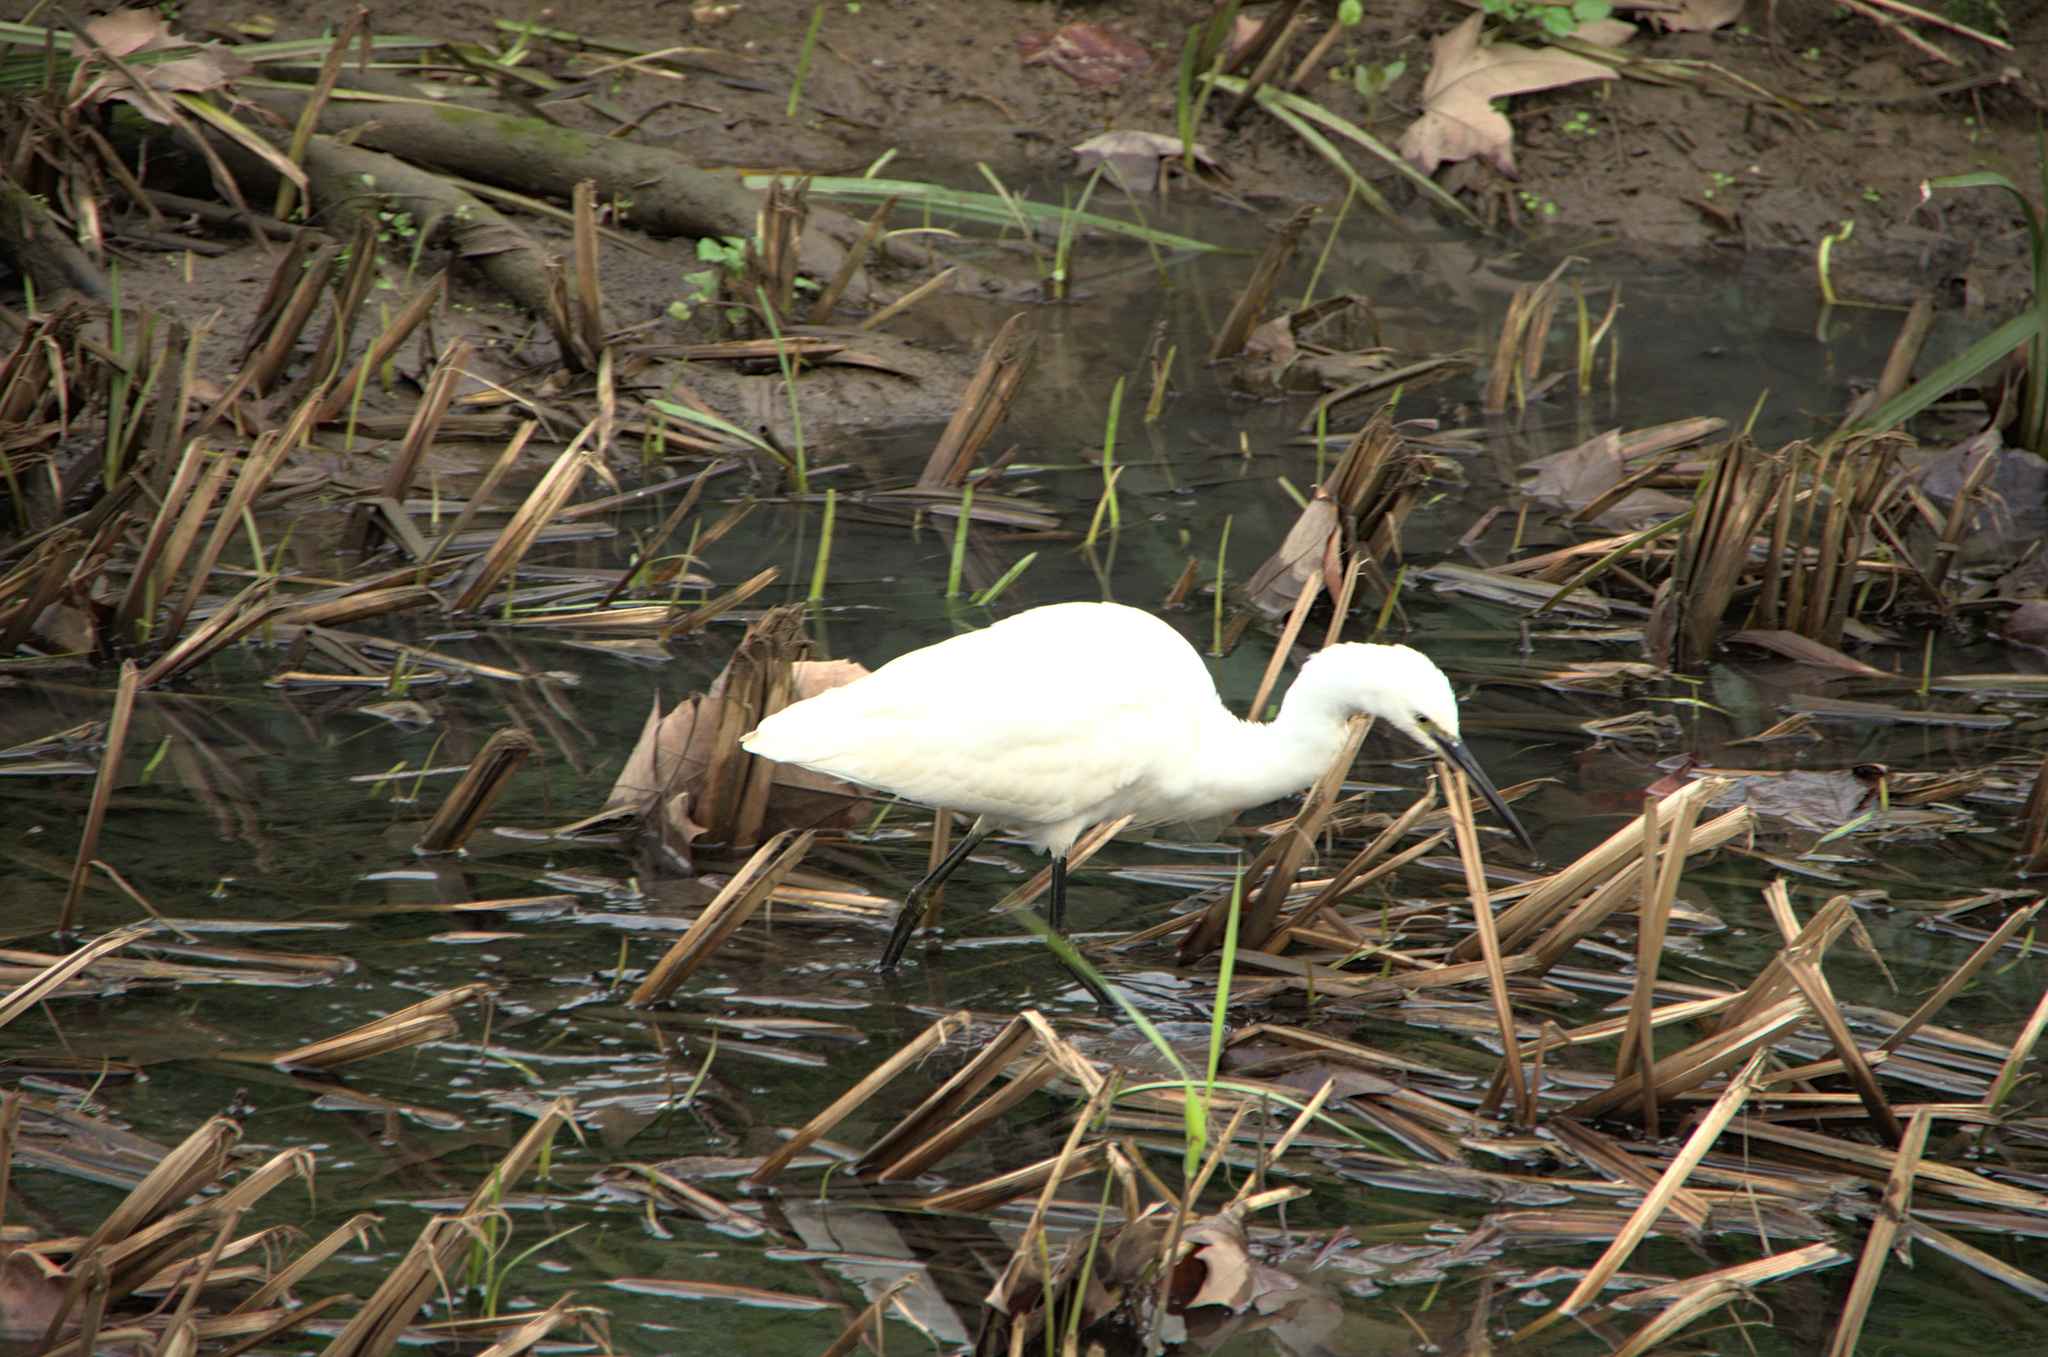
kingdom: Animalia
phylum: Chordata
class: Aves
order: Pelecaniformes
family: Ardeidae
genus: Egretta
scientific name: Egretta garzetta
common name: Little egret
